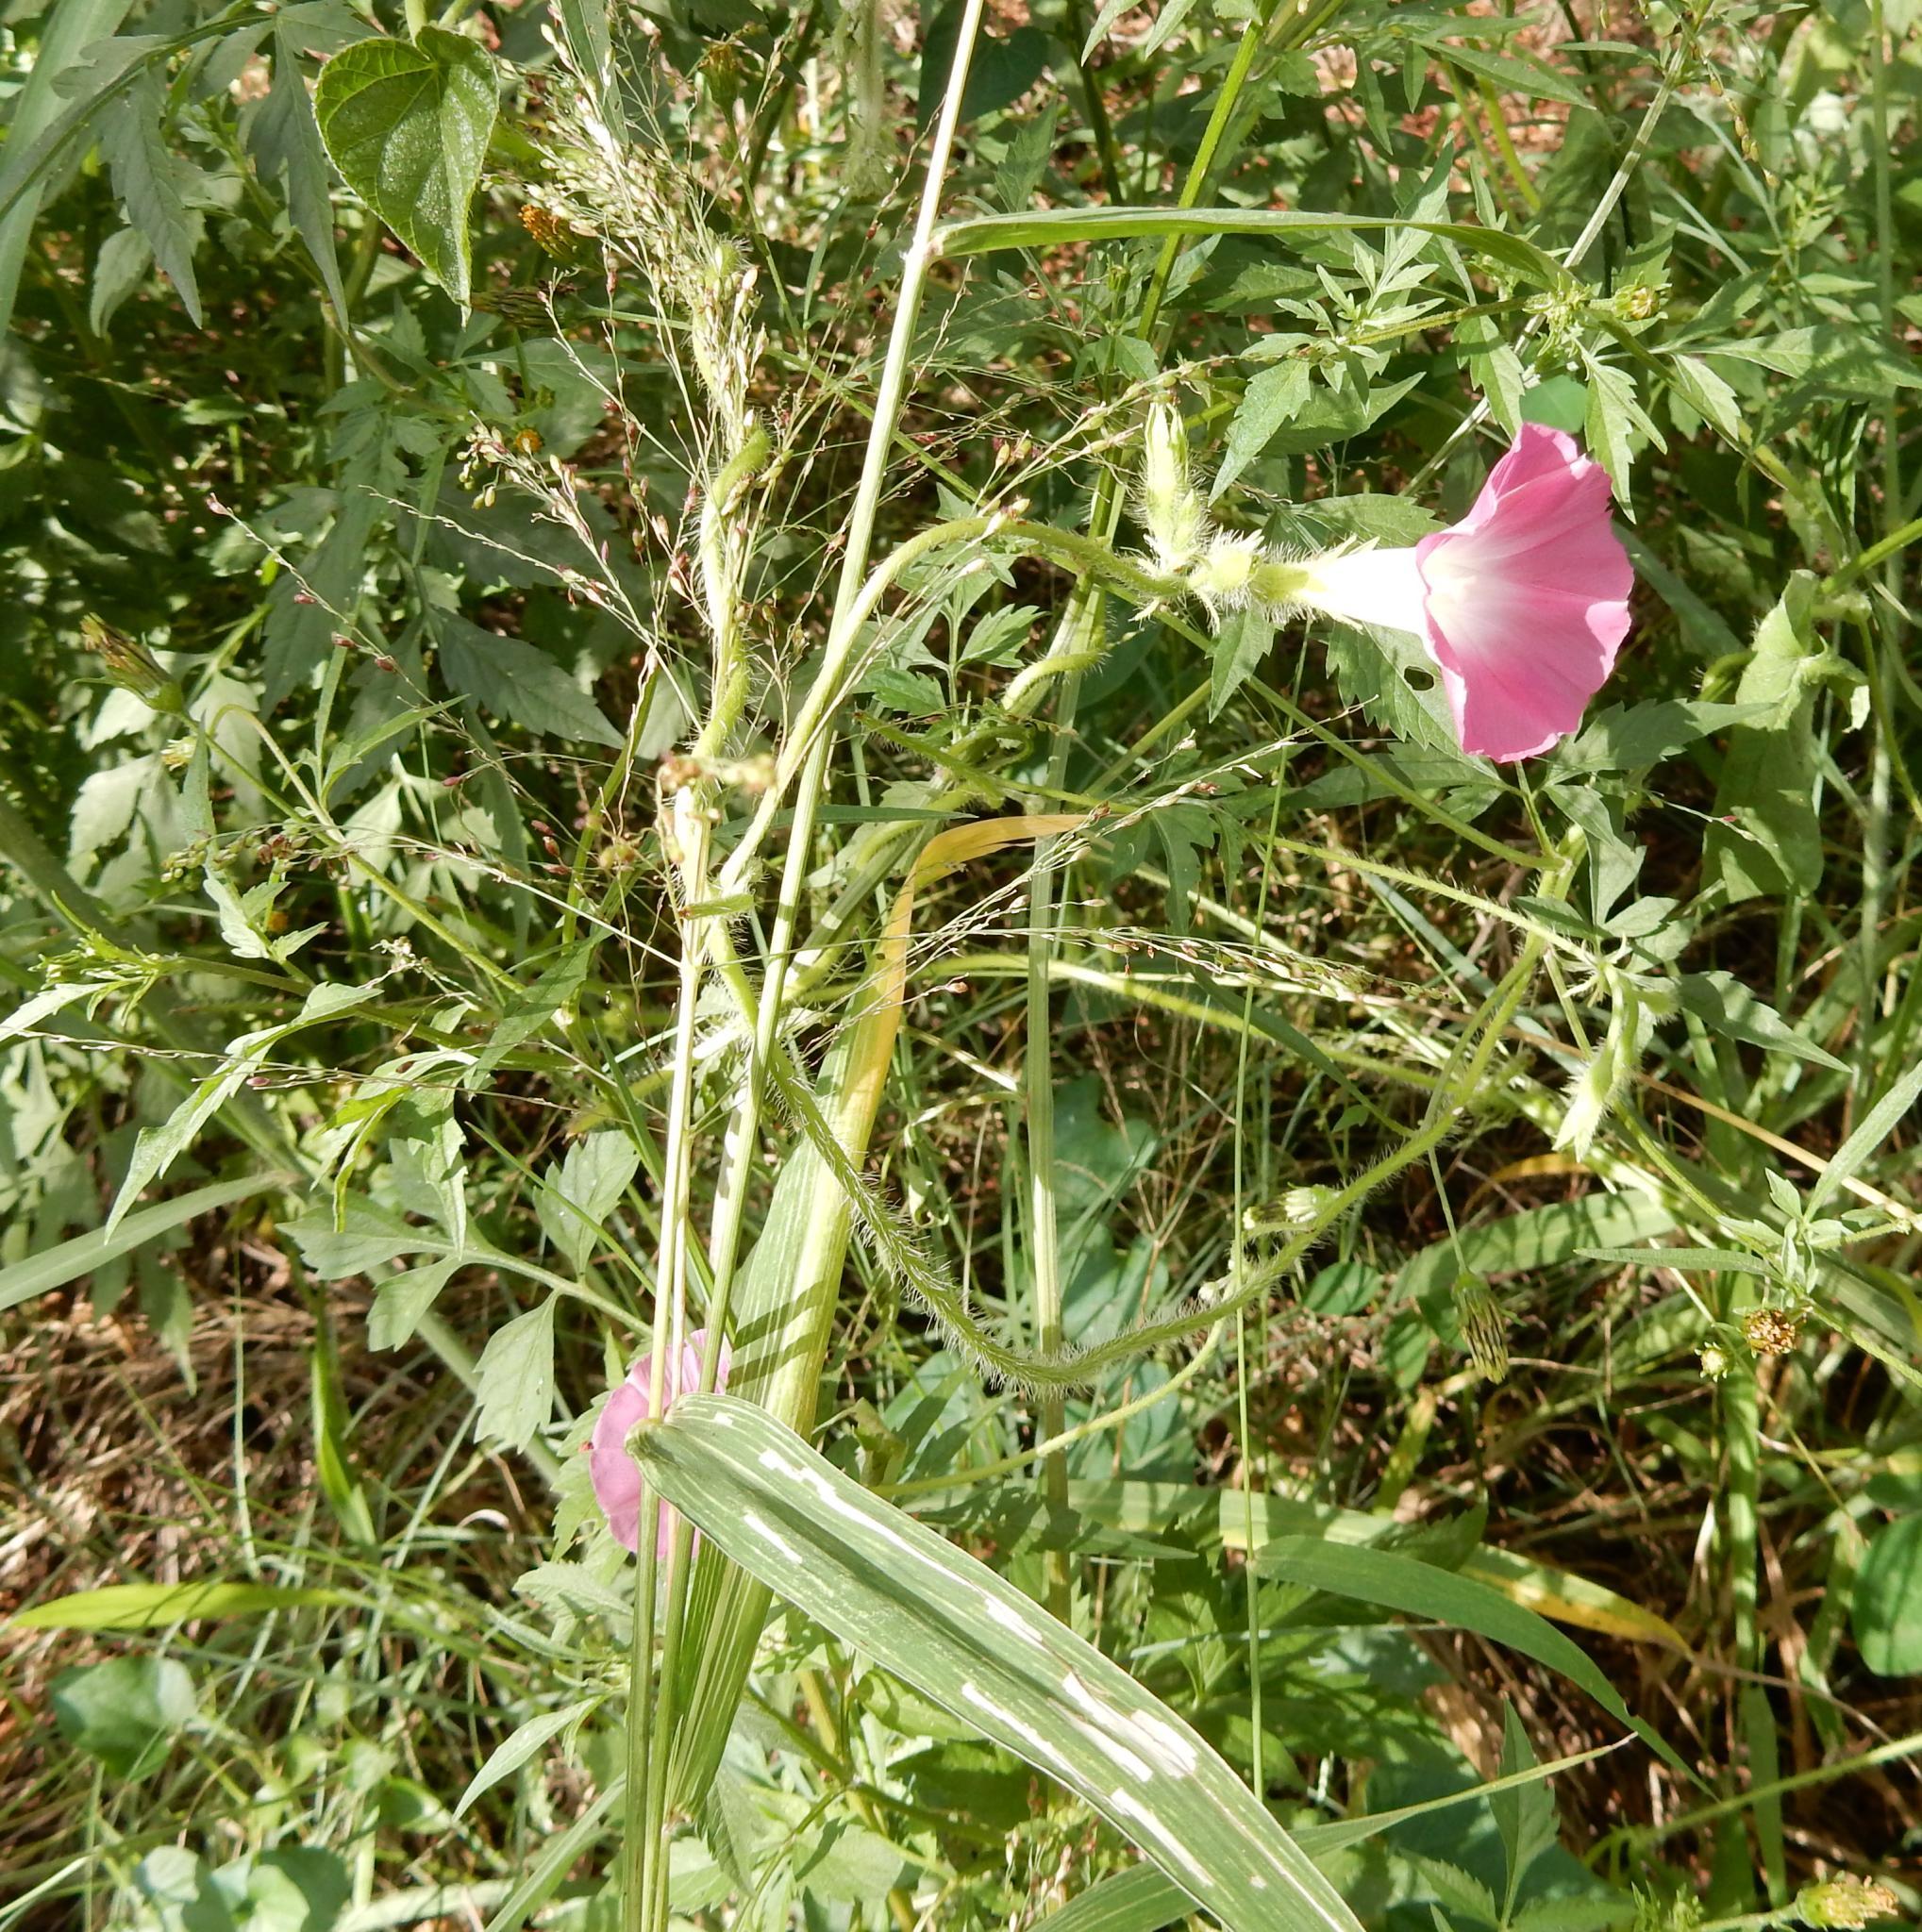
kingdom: Plantae
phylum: Tracheophyta
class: Magnoliopsida
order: Solanales
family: Convolvulaceae
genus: Ipomoea
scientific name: Ipomoea purpurea
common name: Common morning-glory
